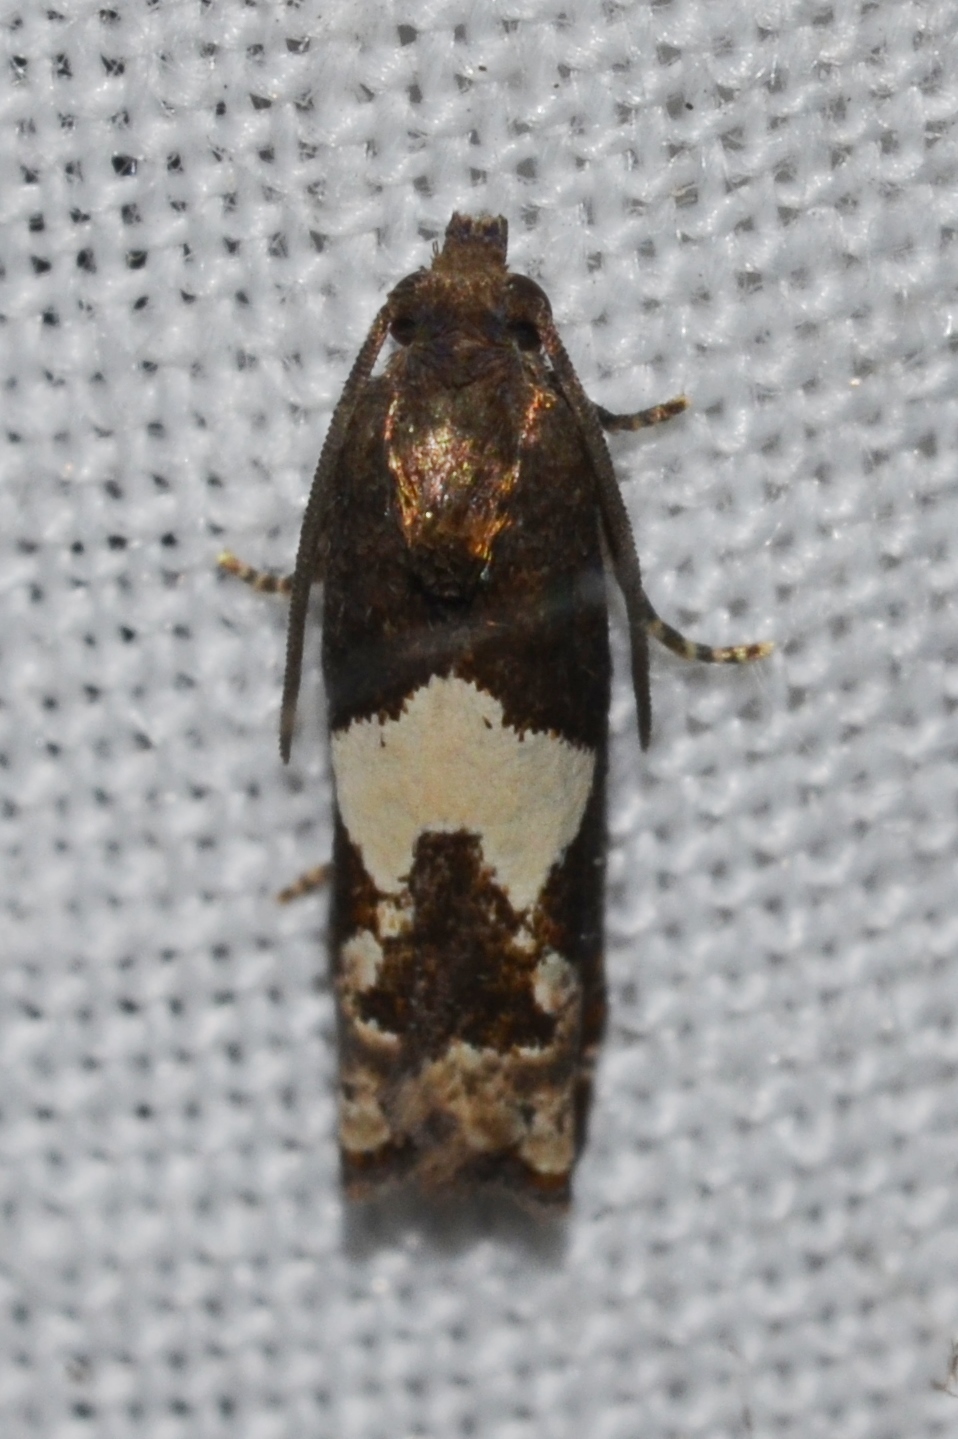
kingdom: Animalia
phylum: Arthropoda
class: Insecta
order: Lepidoptera
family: Tortricidae
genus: Epiblema
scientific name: Epiblema otiosana
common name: Bidens borer moth
